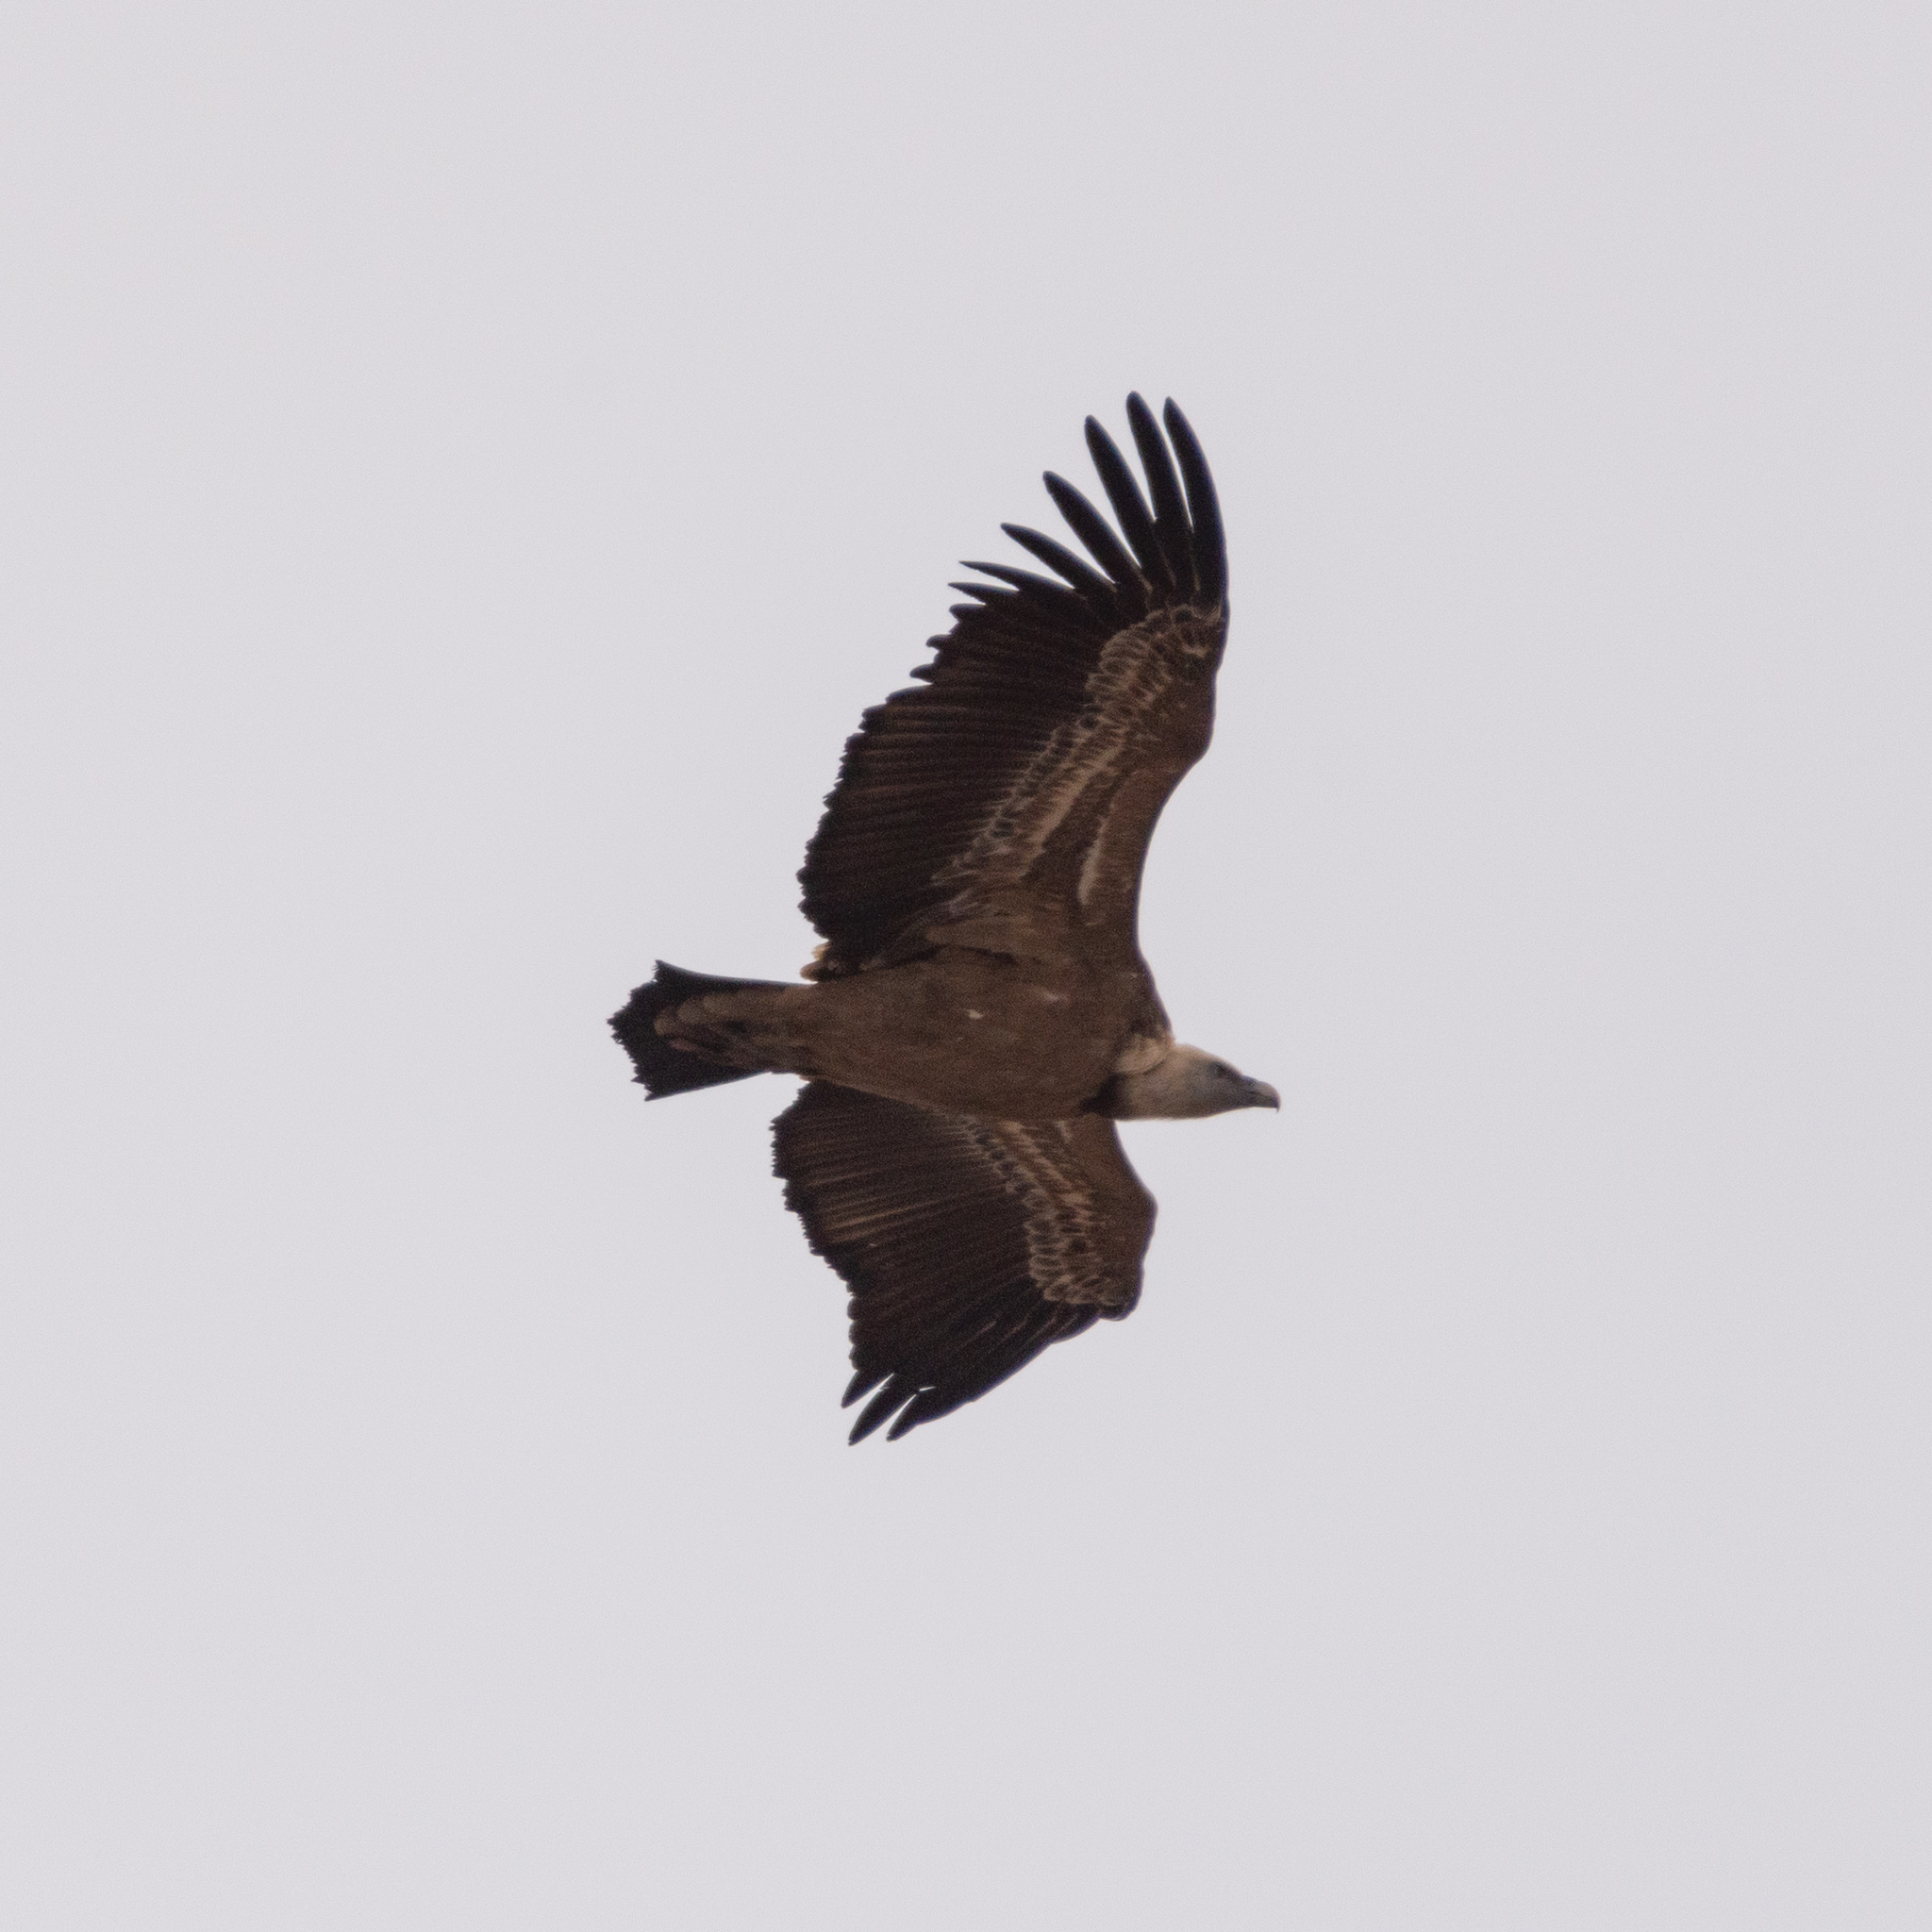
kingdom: Animalia
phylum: Chordata
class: Aves
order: Accipitriformes
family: Accipitridae
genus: Gyps
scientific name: Gyps fulvus
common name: Griffon vulture
